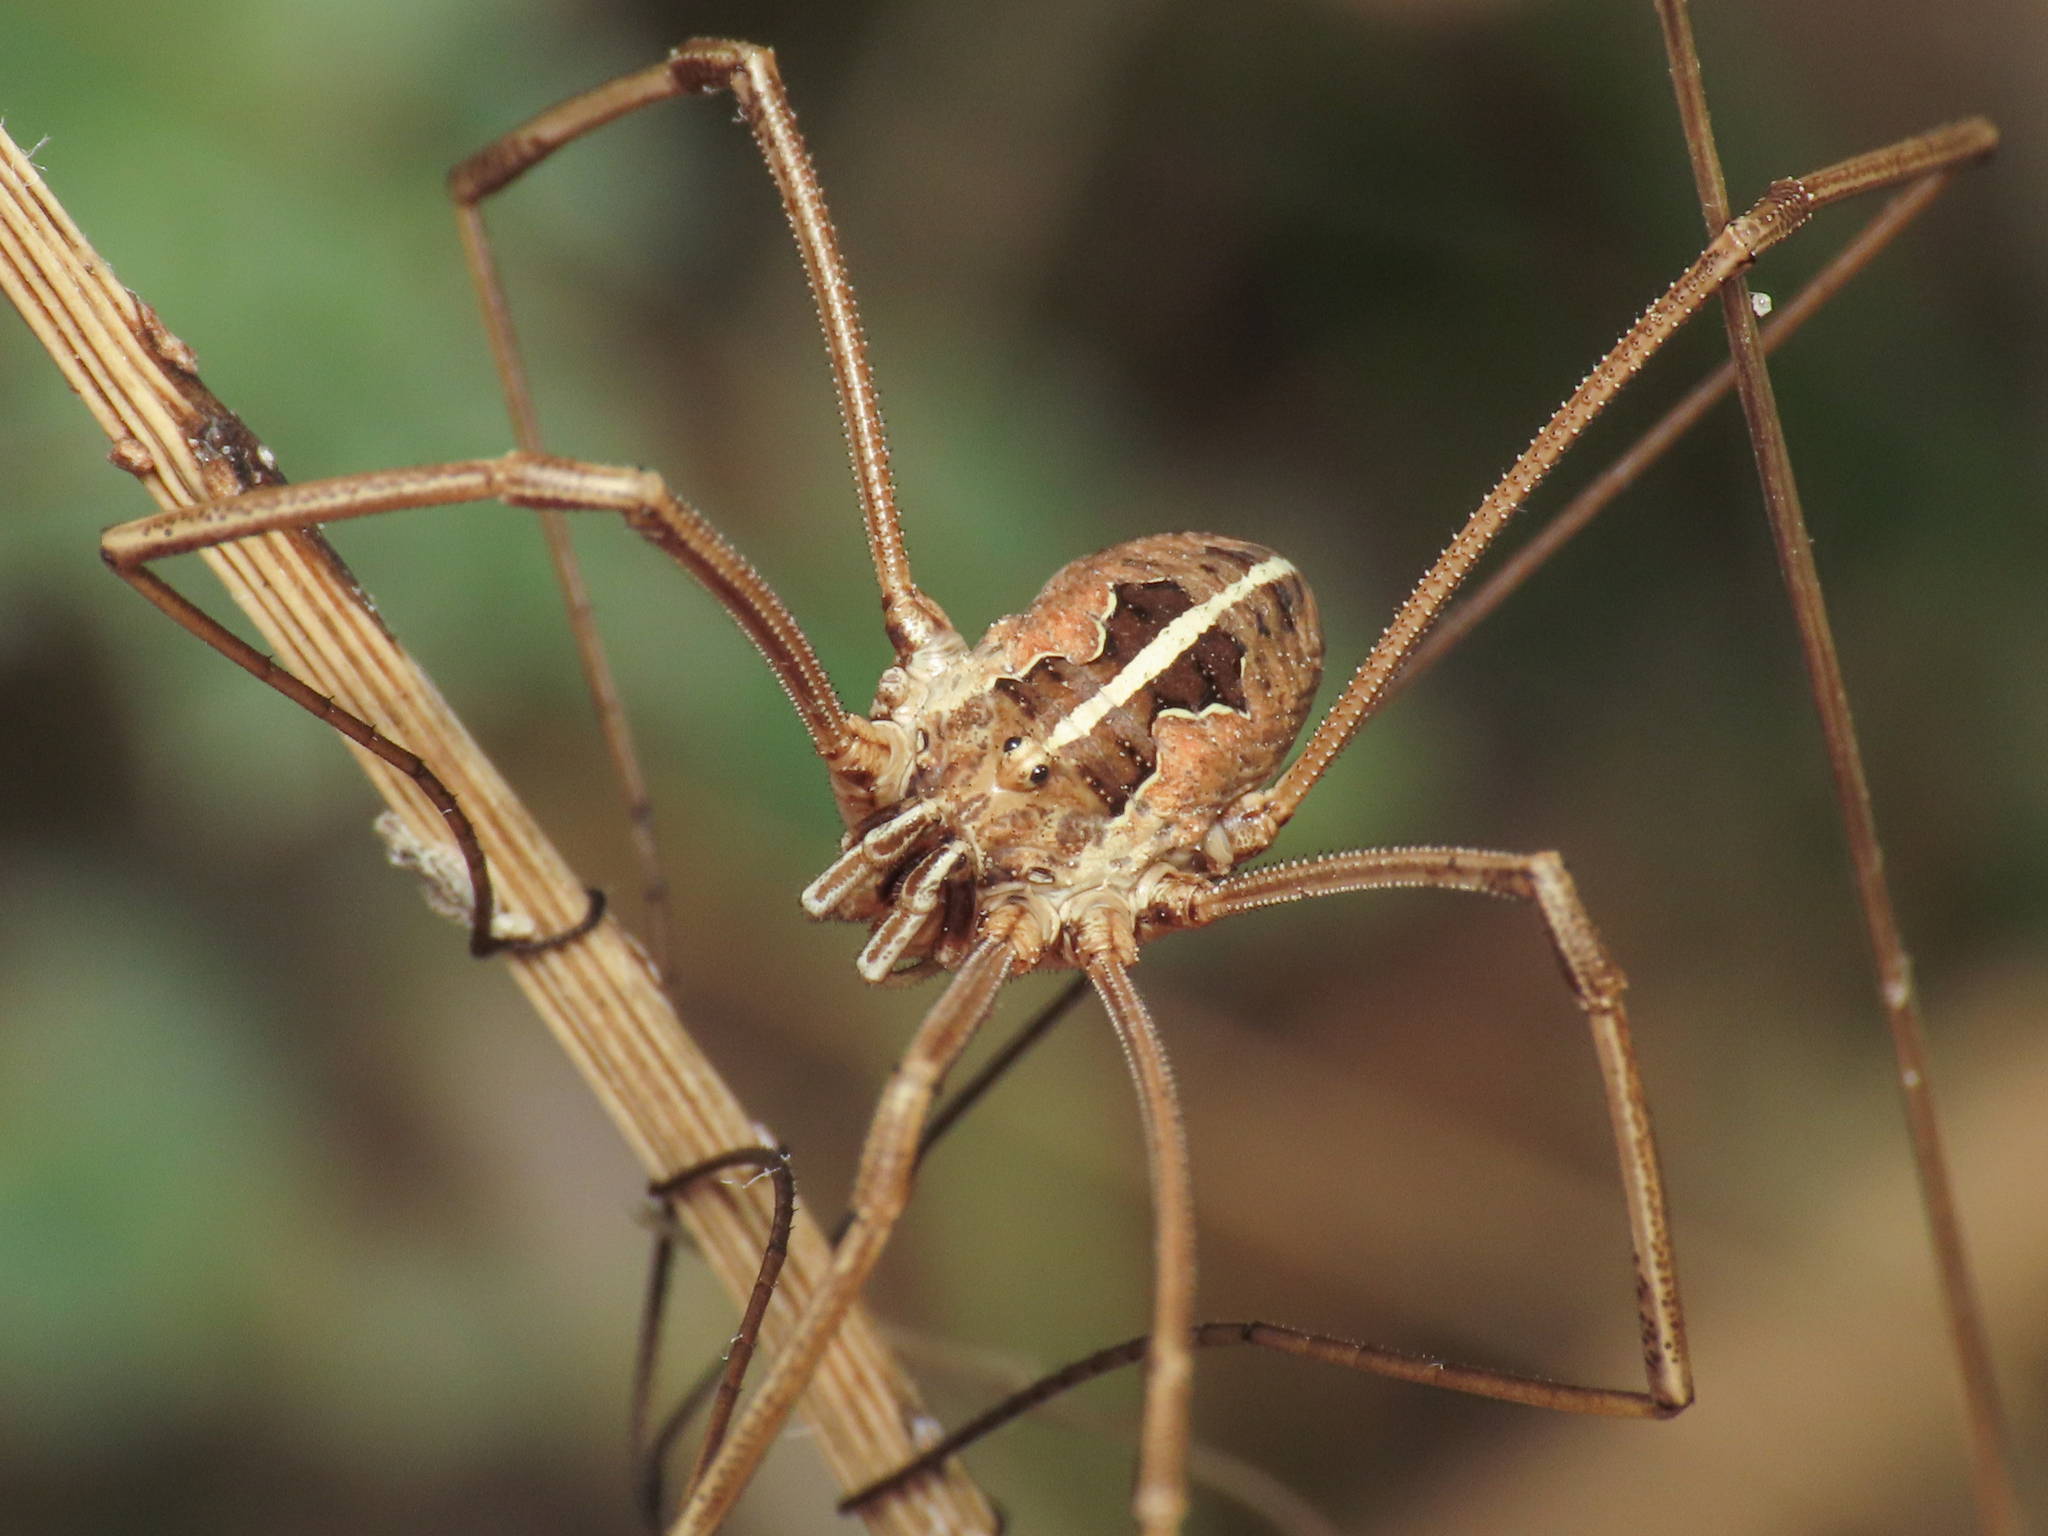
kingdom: Animalia
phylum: Arthropoda
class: Arachnida
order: Opiliones
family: Phalangiidae
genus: Metaphalangium
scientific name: Metaphalangium cirtanum
